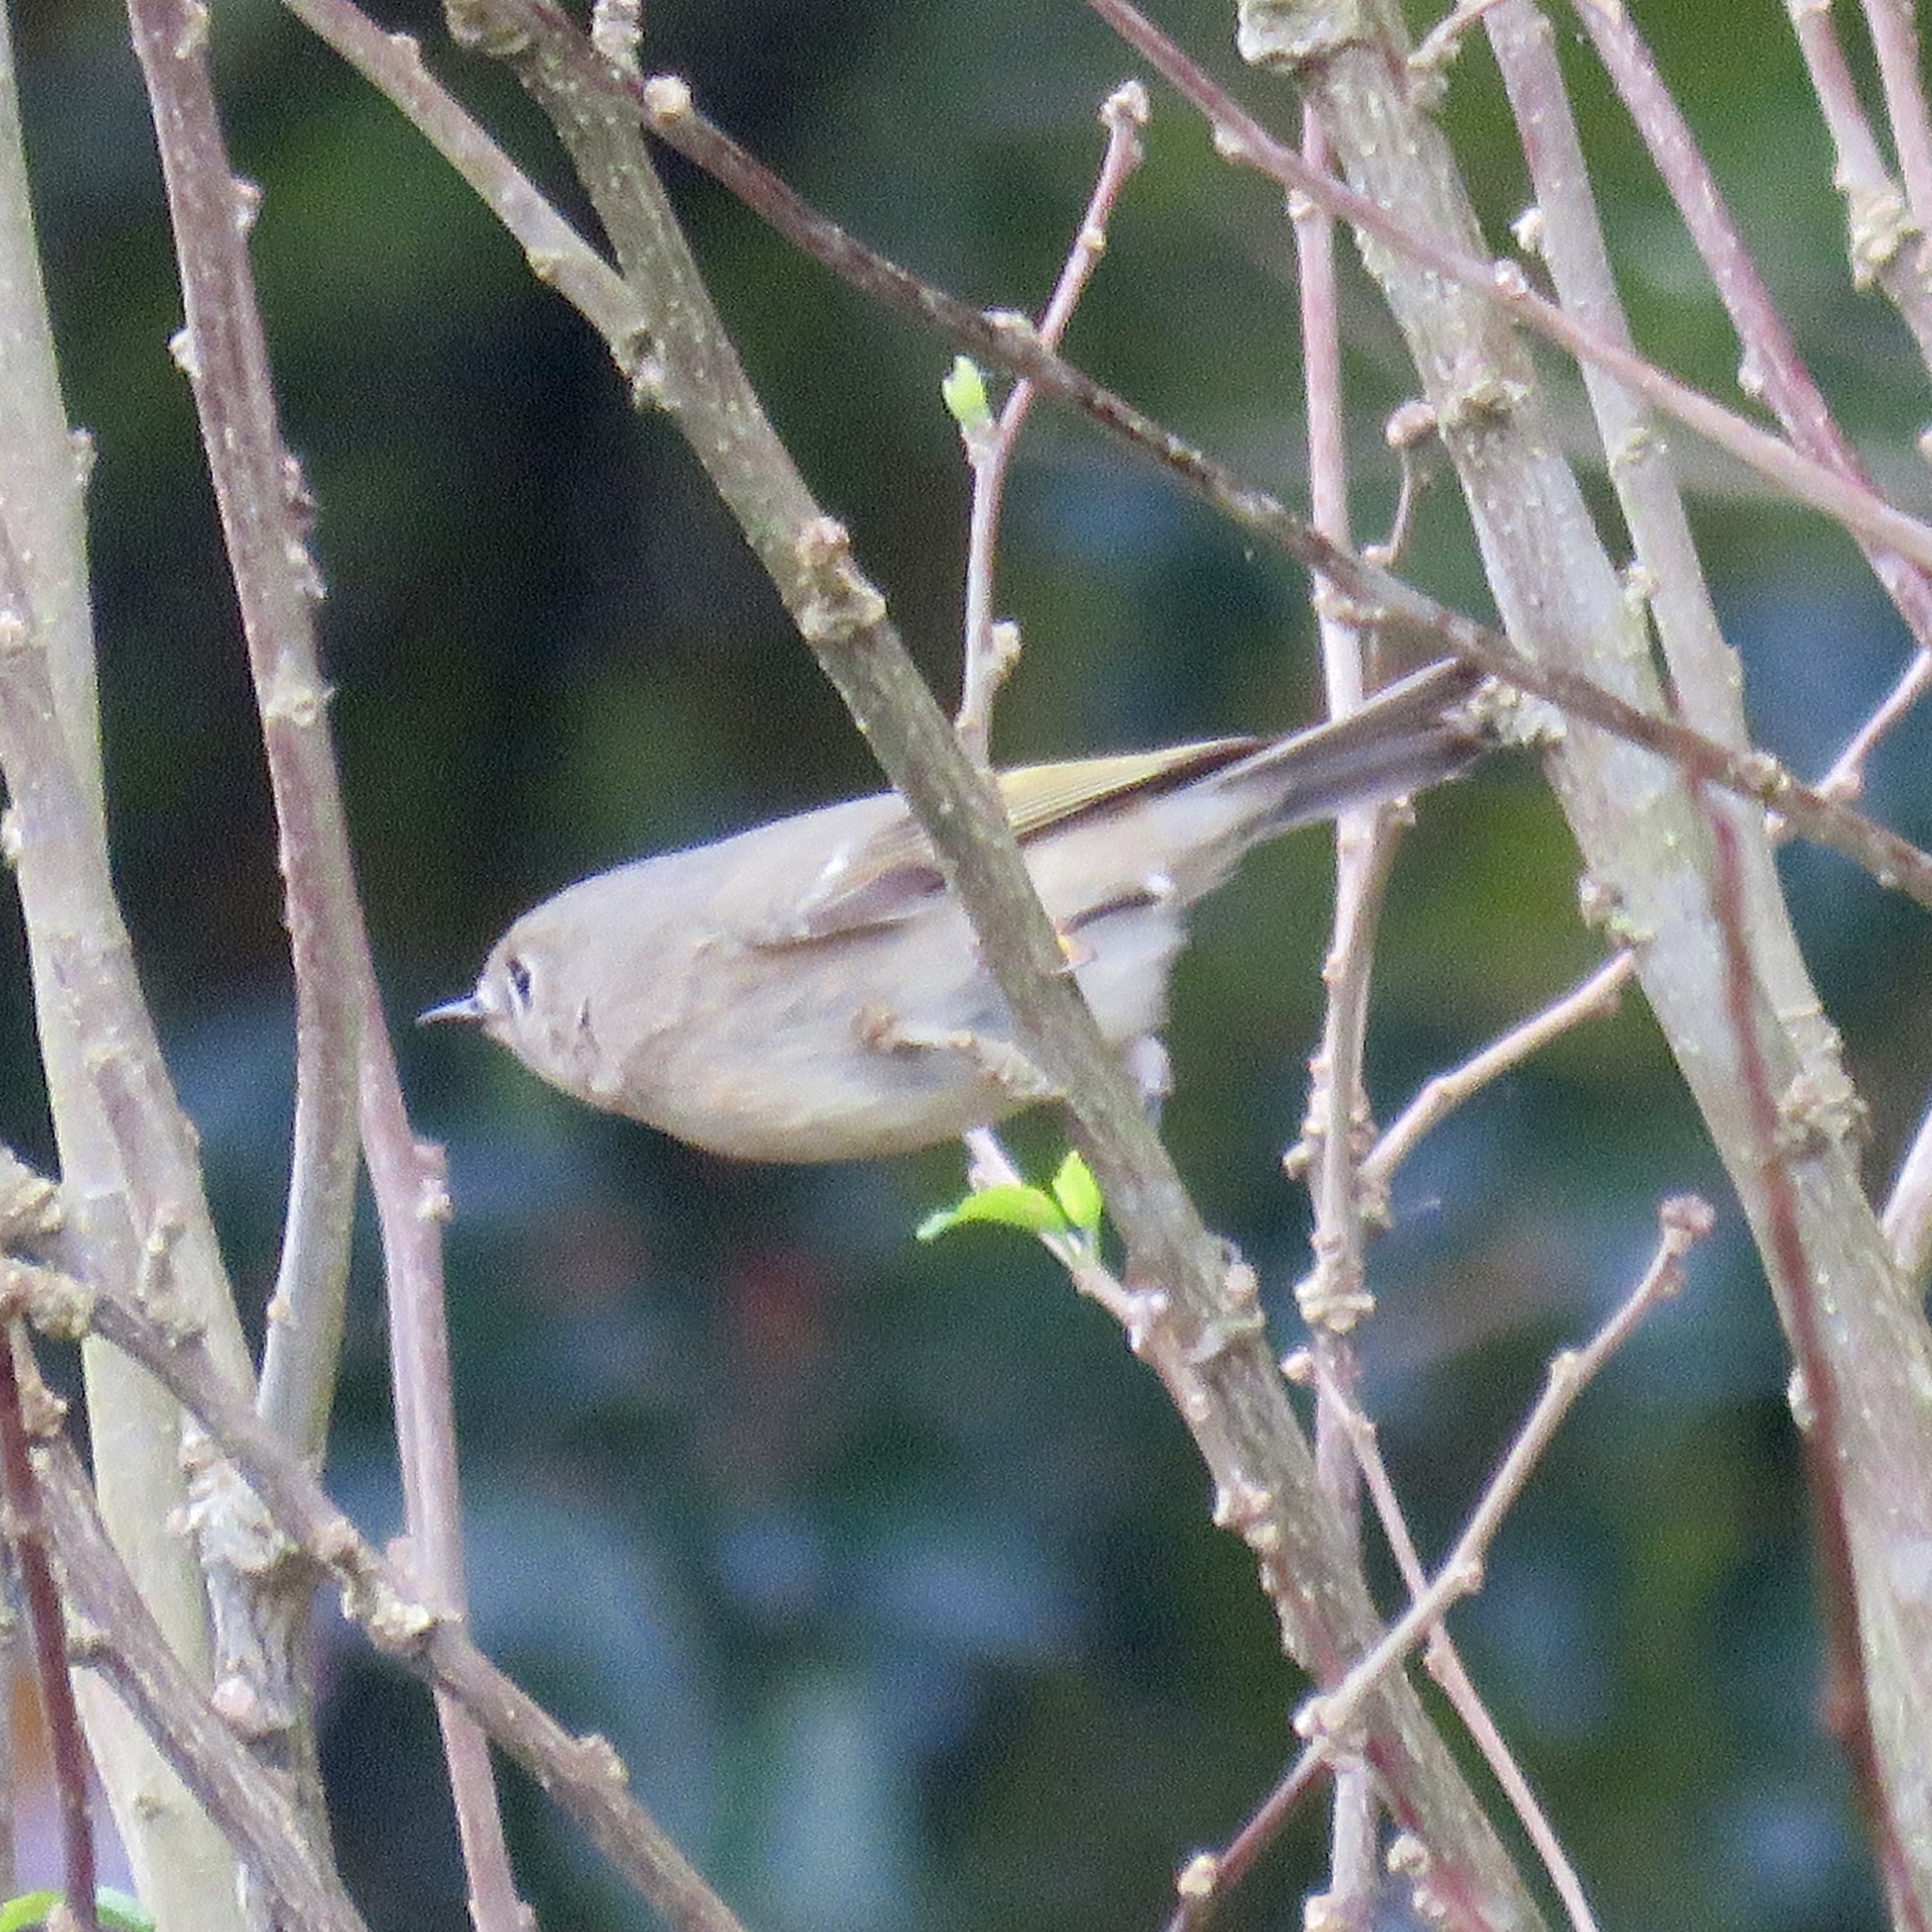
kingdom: Animalia
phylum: Chordata
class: Aves
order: Passeriformes
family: Regulidae
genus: Regulus
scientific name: Regulus calendula
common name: Ruby-crowned kinglet
